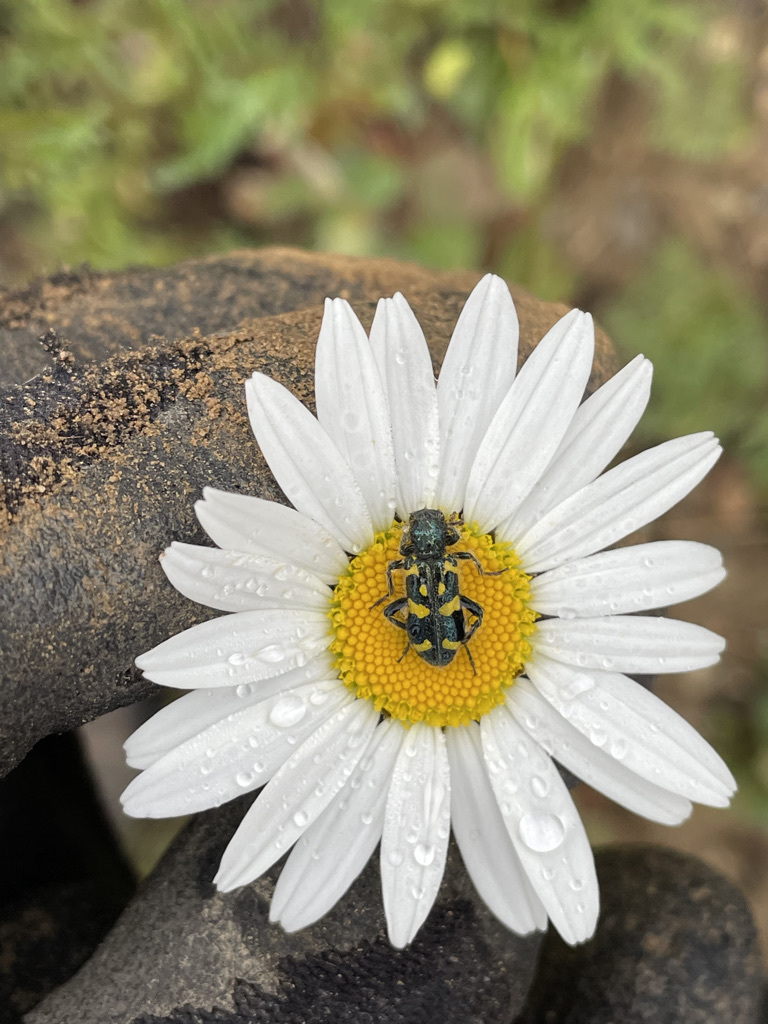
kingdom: Animalia
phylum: Arthropoda
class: Insecta
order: Coleoptera
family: Cleridae
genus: Trichodes
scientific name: Trichodes ornatus
